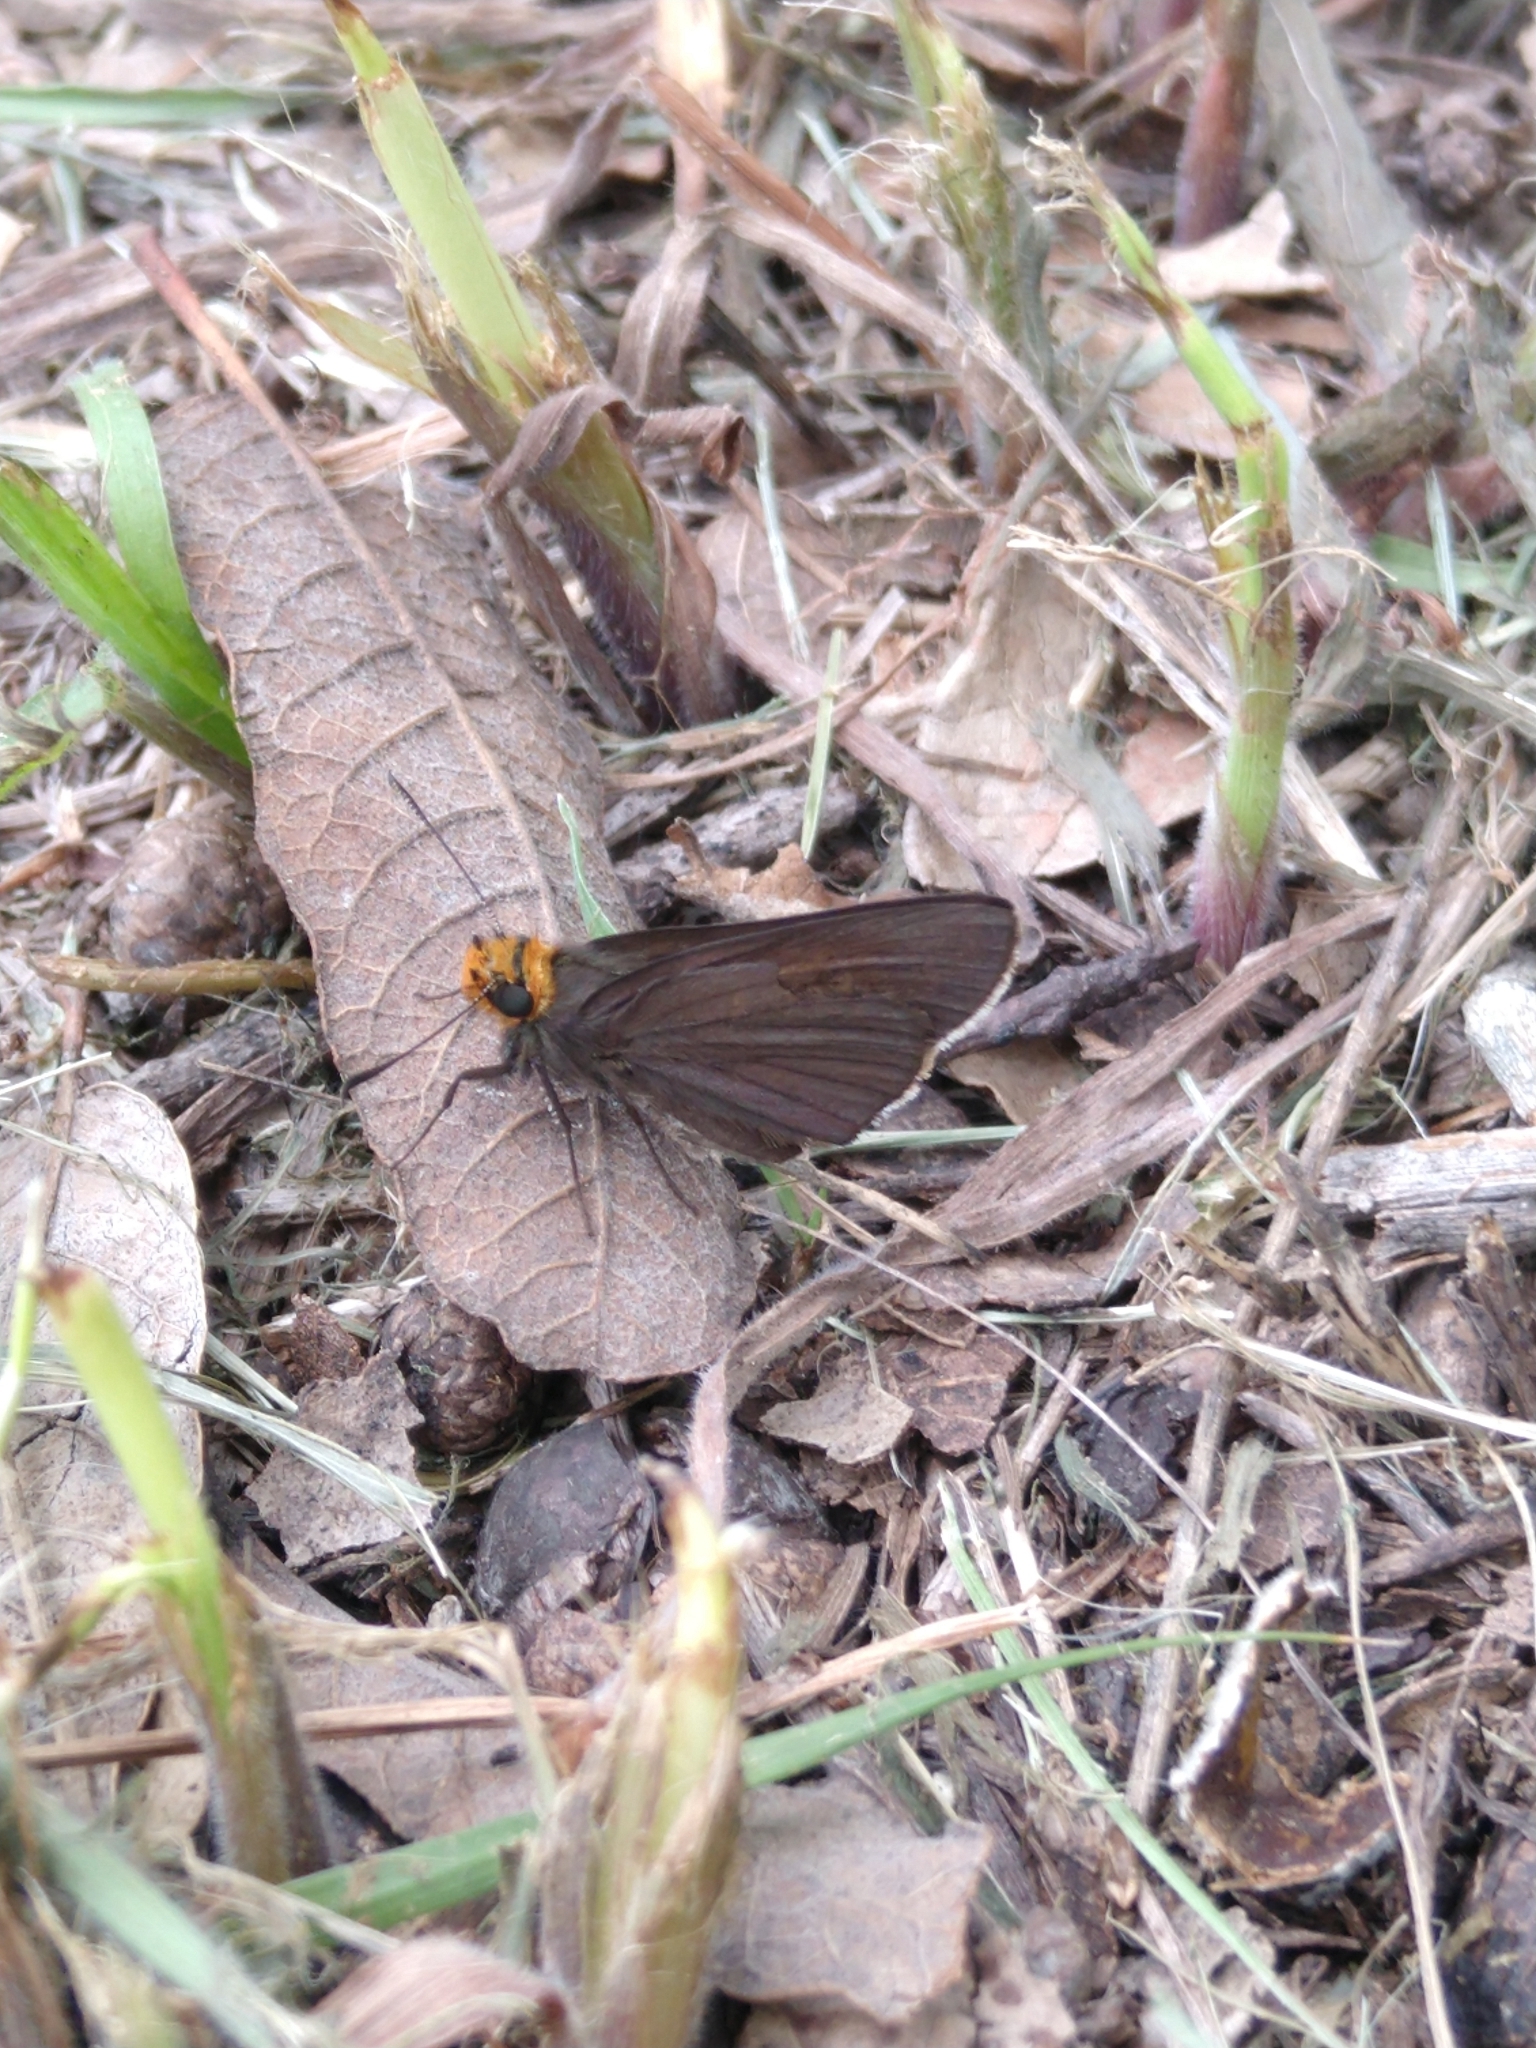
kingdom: Animalia
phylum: Arthropoda
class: Insecta
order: Lepidoptera
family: Hesperiidae
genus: Mastor
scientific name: Mastor fimbriata
